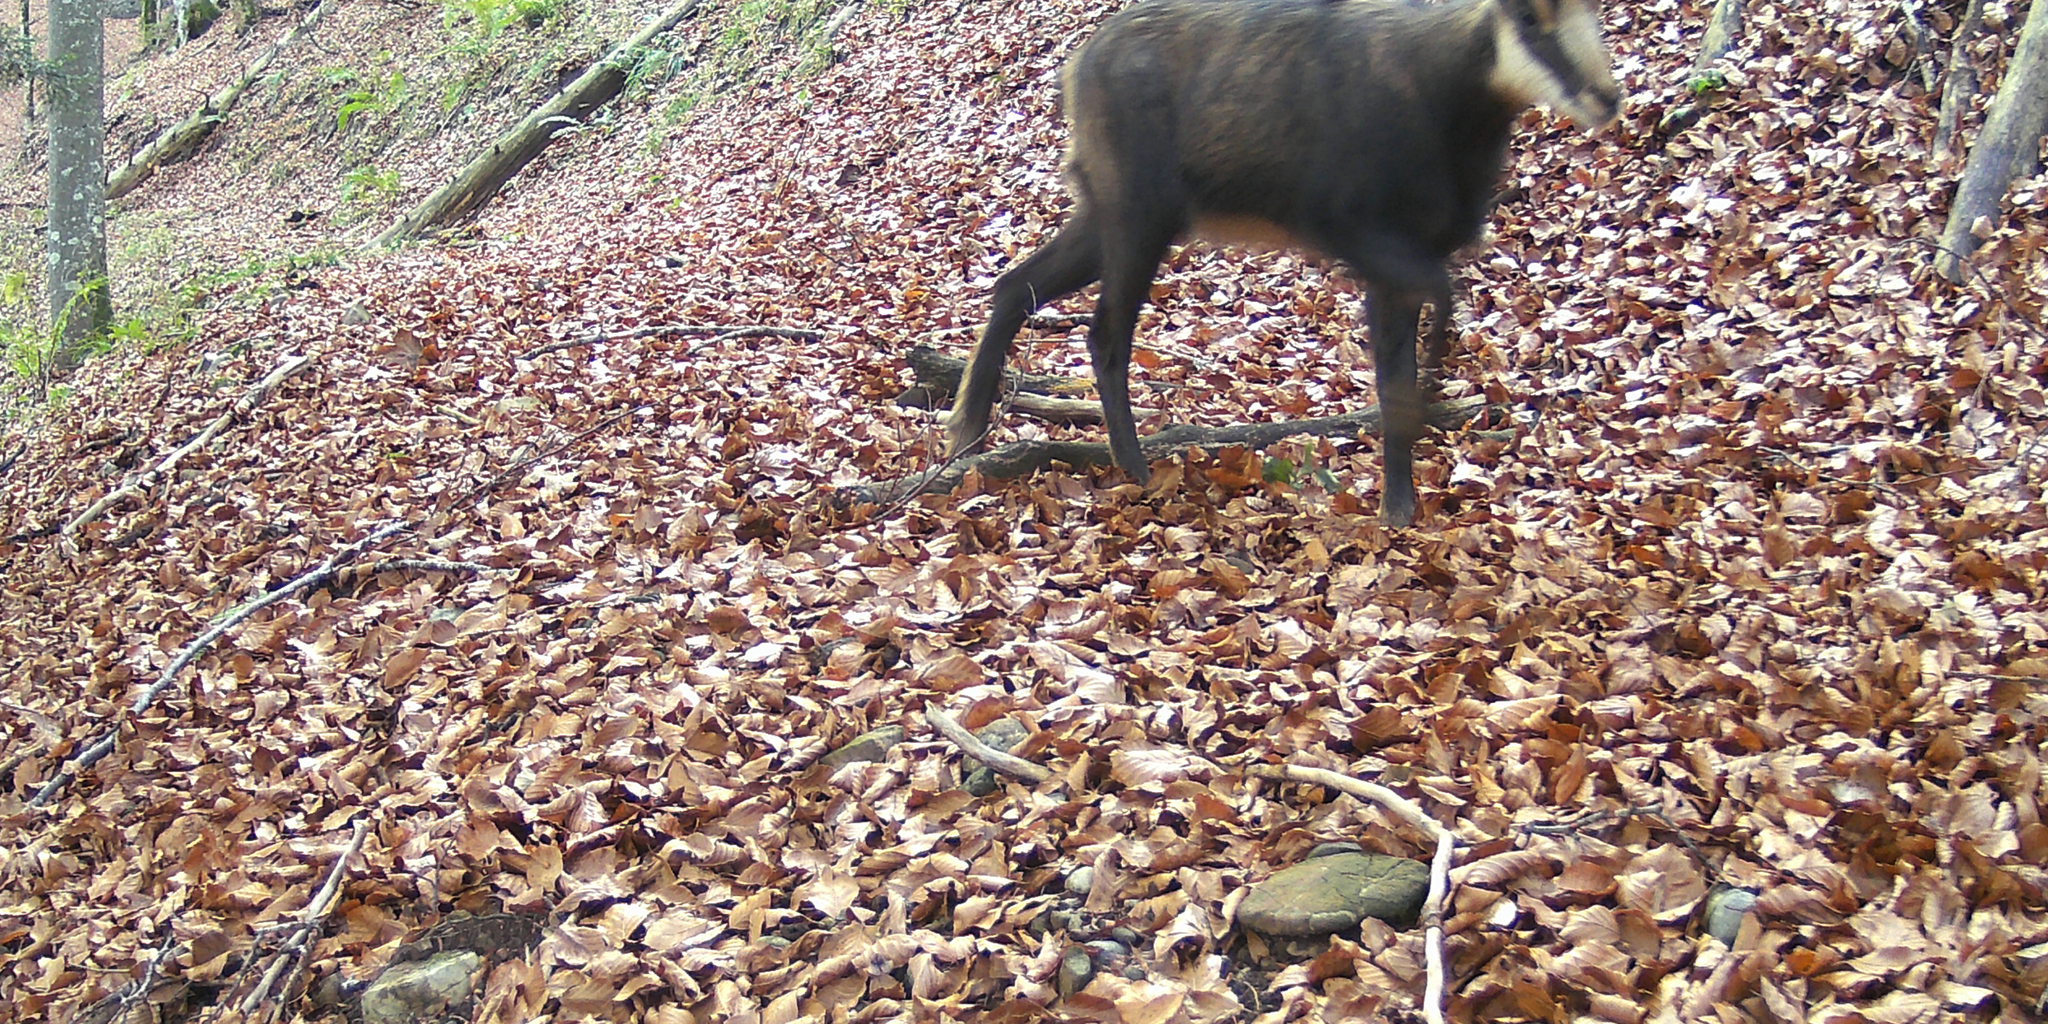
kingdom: Animalia
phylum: Chordata
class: Mammalia
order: Artiodactyla
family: Bovidae
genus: Rupicapra
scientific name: Rupicapra rupicapra
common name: Chamois
